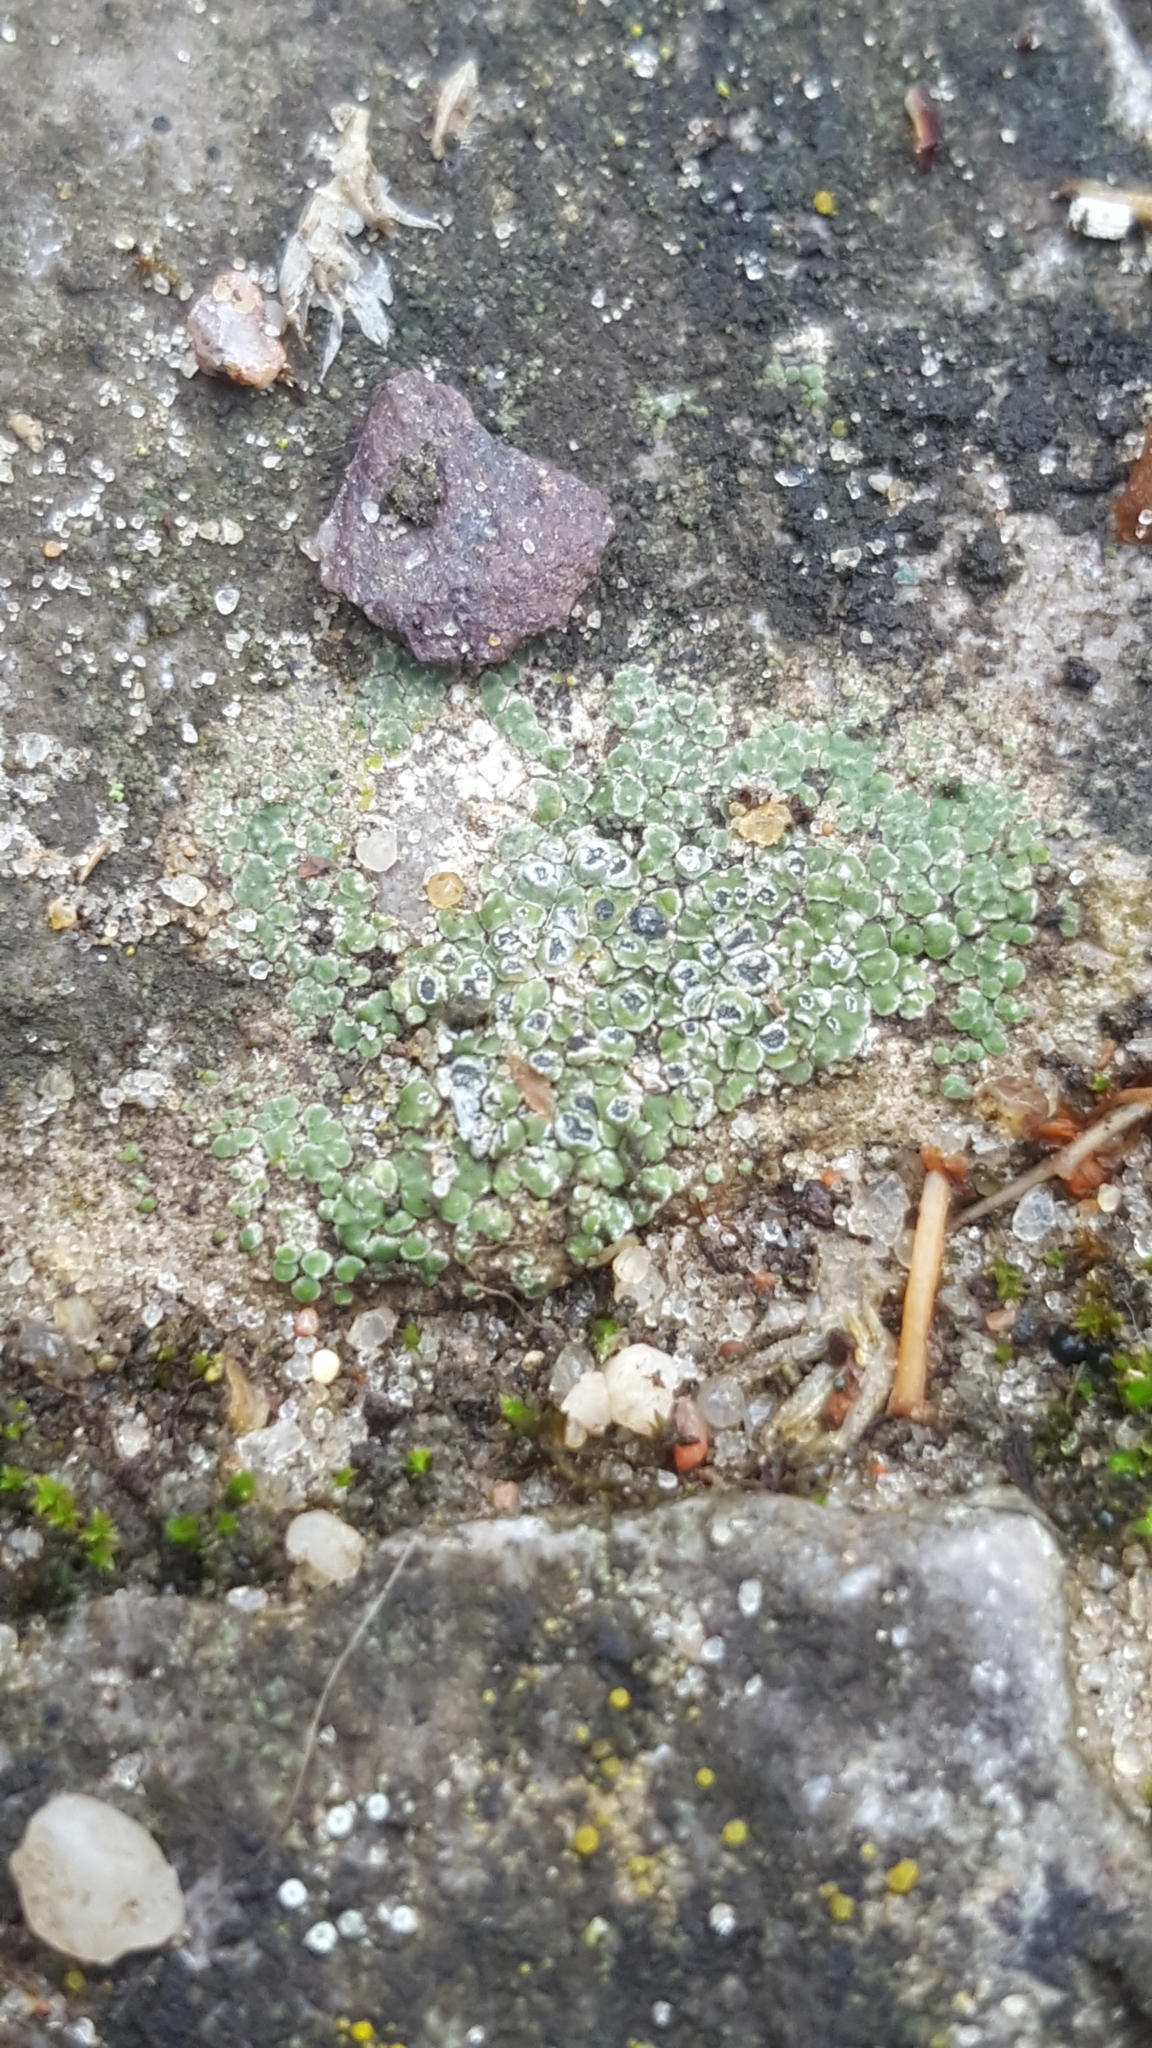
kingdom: Fungi
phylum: Ascomycota
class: Lecanoromycetes
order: Pertusariales
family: Megasporaceae
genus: Circinaria
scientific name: Circinaria contorta
